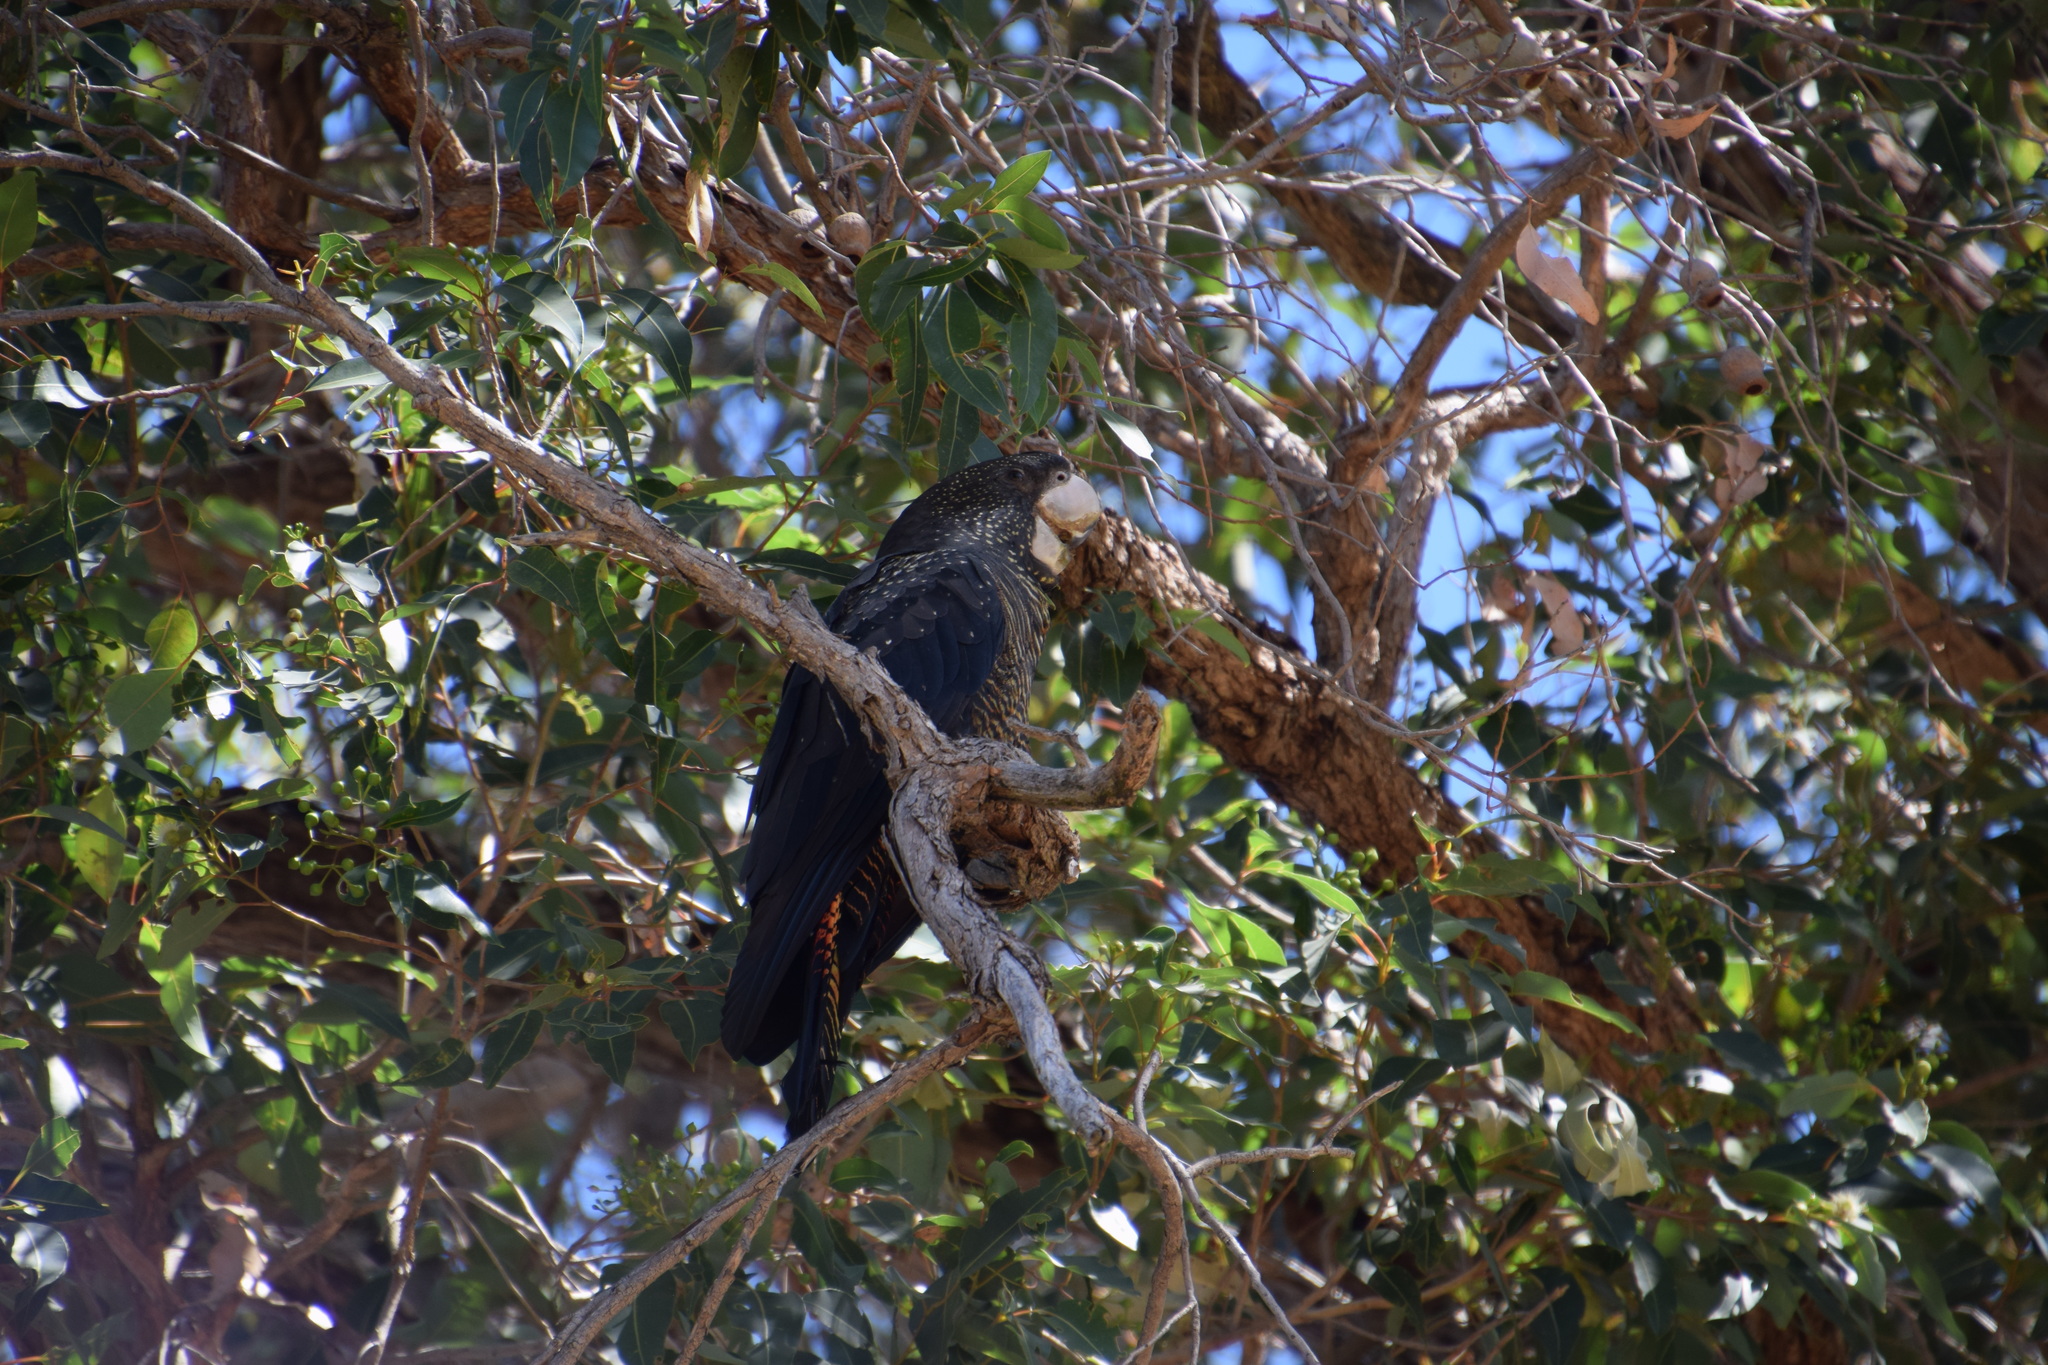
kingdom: Animalia
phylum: Chordata
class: Aves
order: Psittaciformes
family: Psittacidae
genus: Calyptorhynchus
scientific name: Calyptorhynchus banksii
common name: Red-tailed black cockatoo
